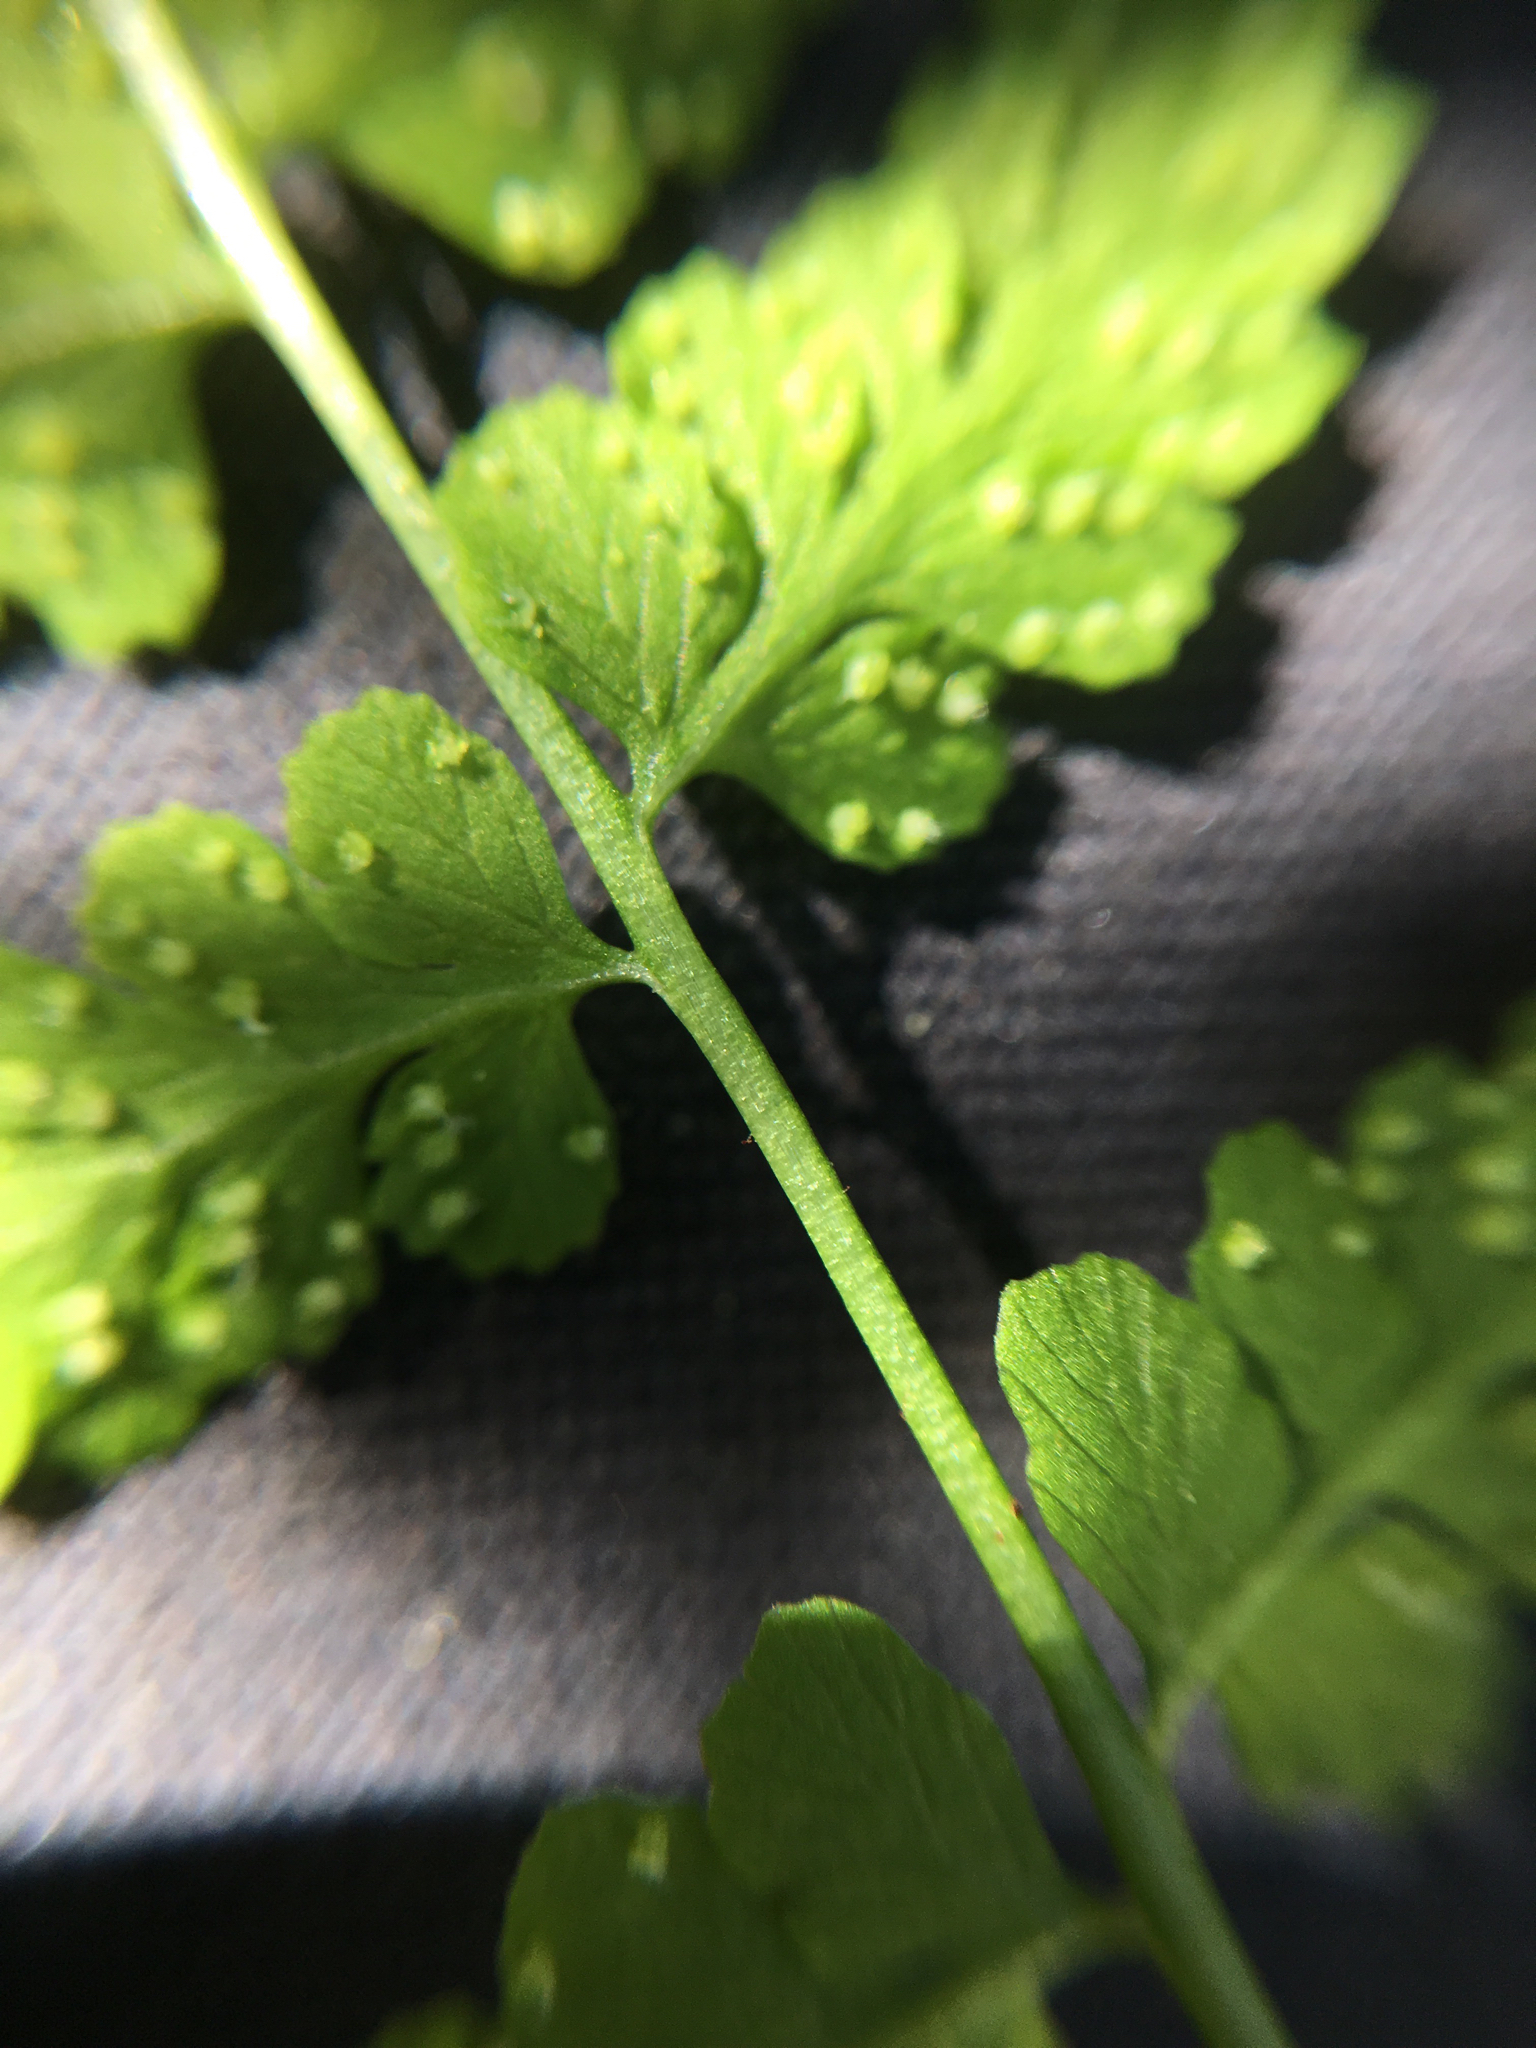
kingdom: Plantae
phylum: Tracheophyta
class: Polypodiopsida
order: Polypodiales
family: Cystopteridaceae
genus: Cystopteris
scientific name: Cystopteris fragilis
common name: Brittle bladder fern
